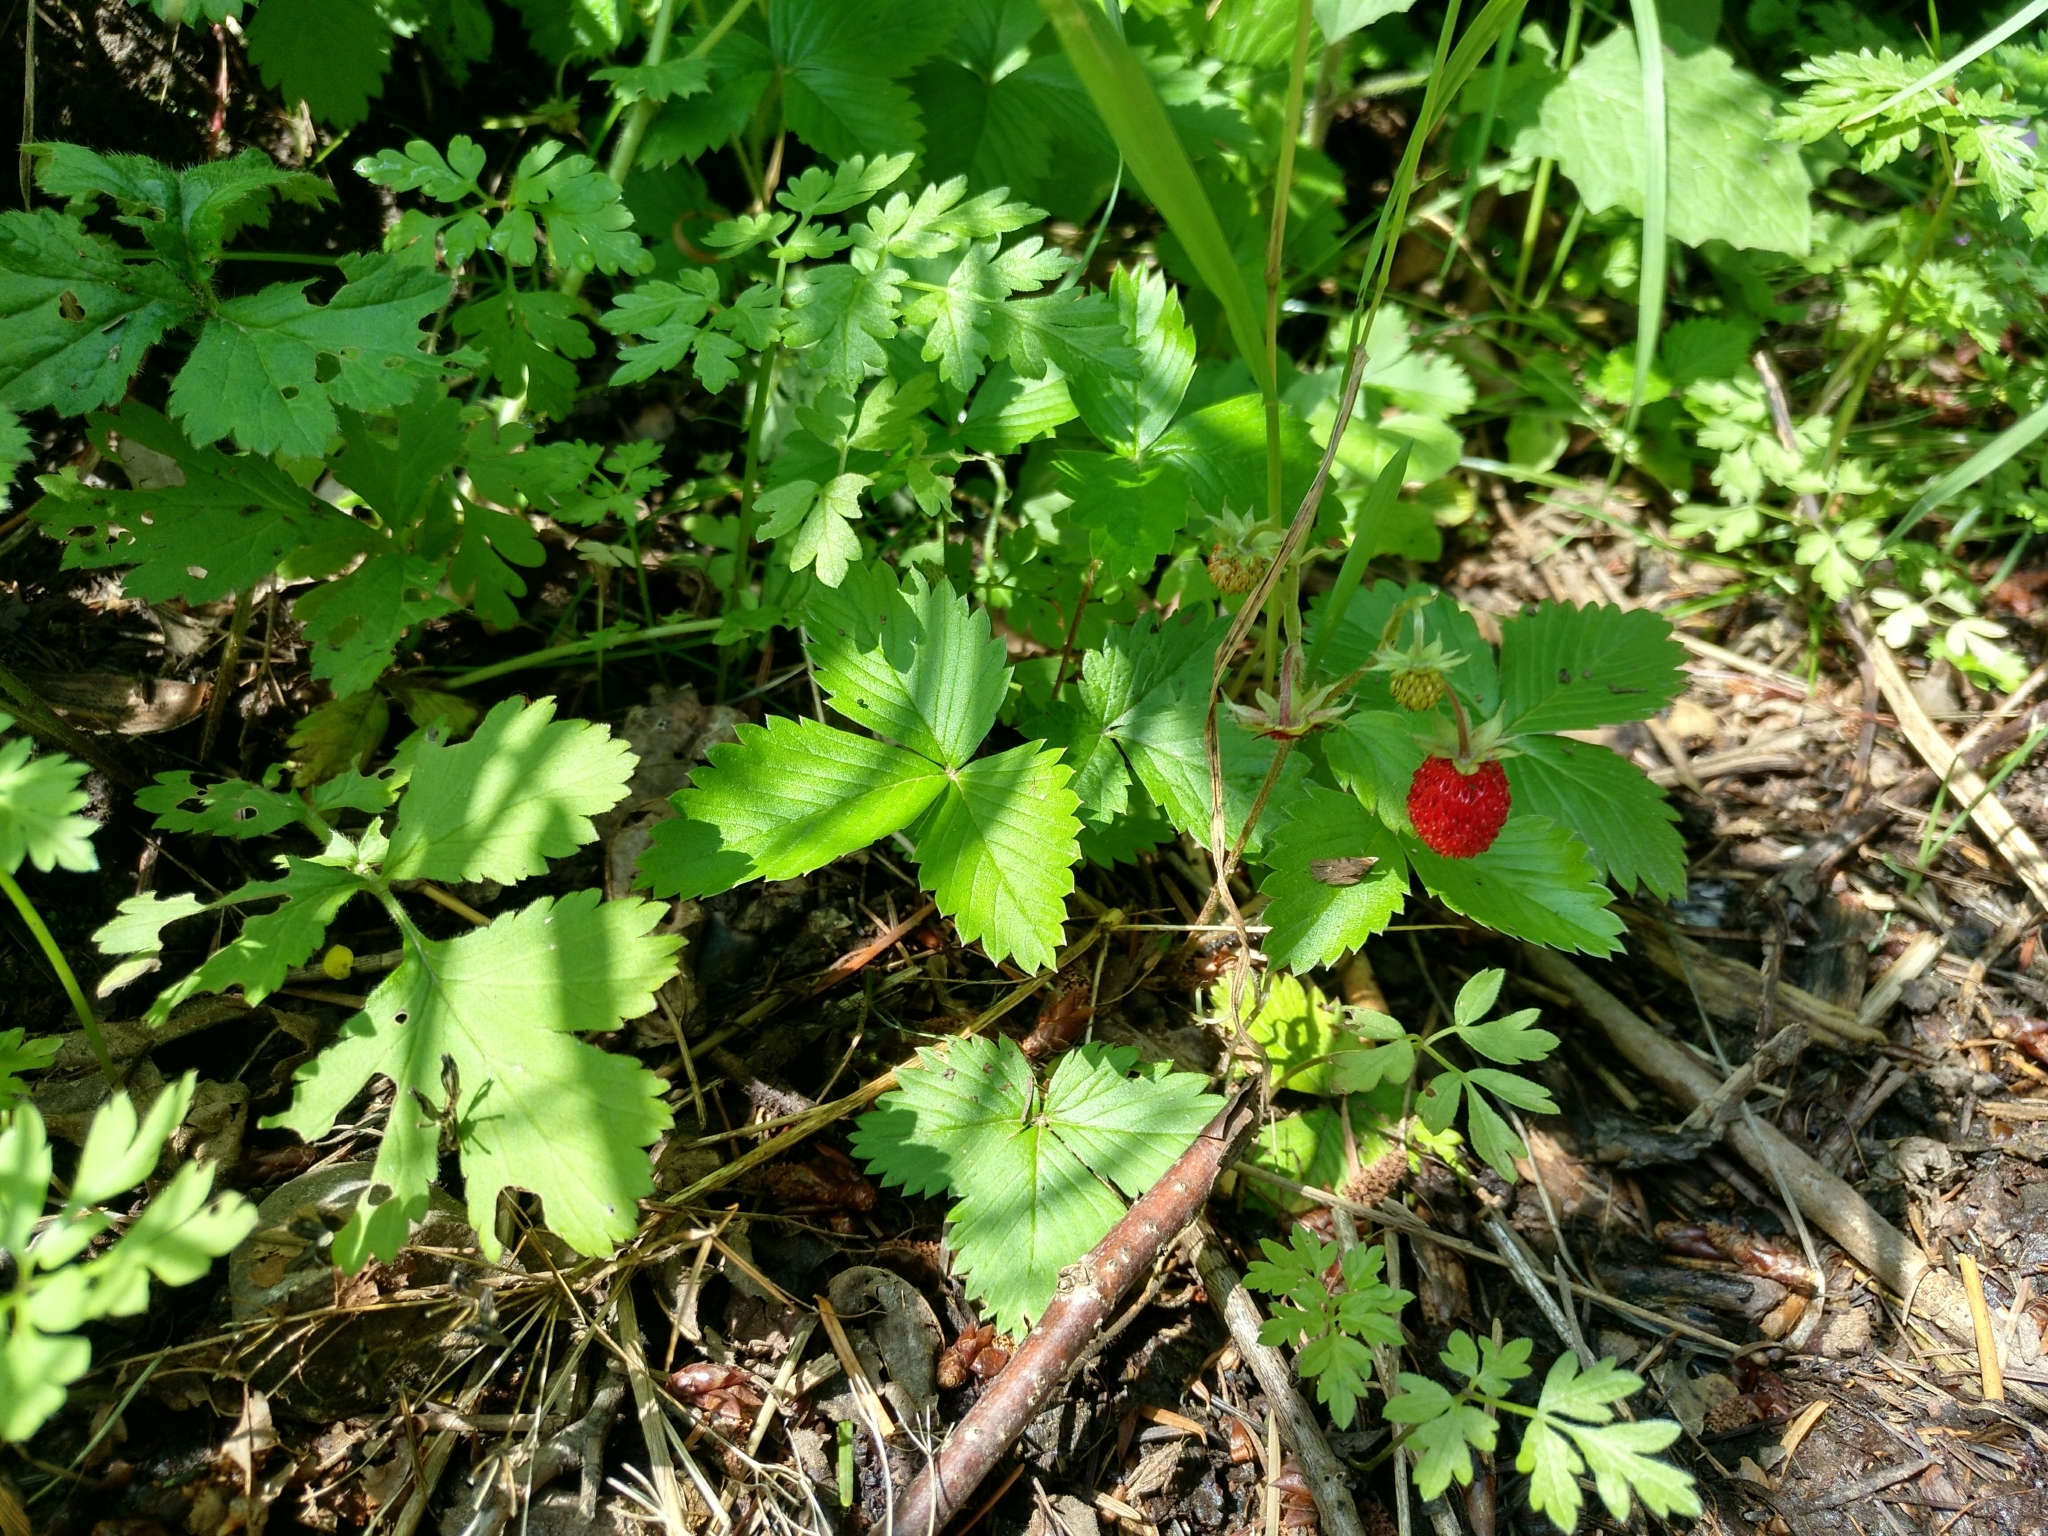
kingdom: Plantae
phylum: Tracheophyta
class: Magnoliopsida
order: Rosales
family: Rosaceae
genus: Fragaria
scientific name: Fragaria vesca
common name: Wild strawberry
